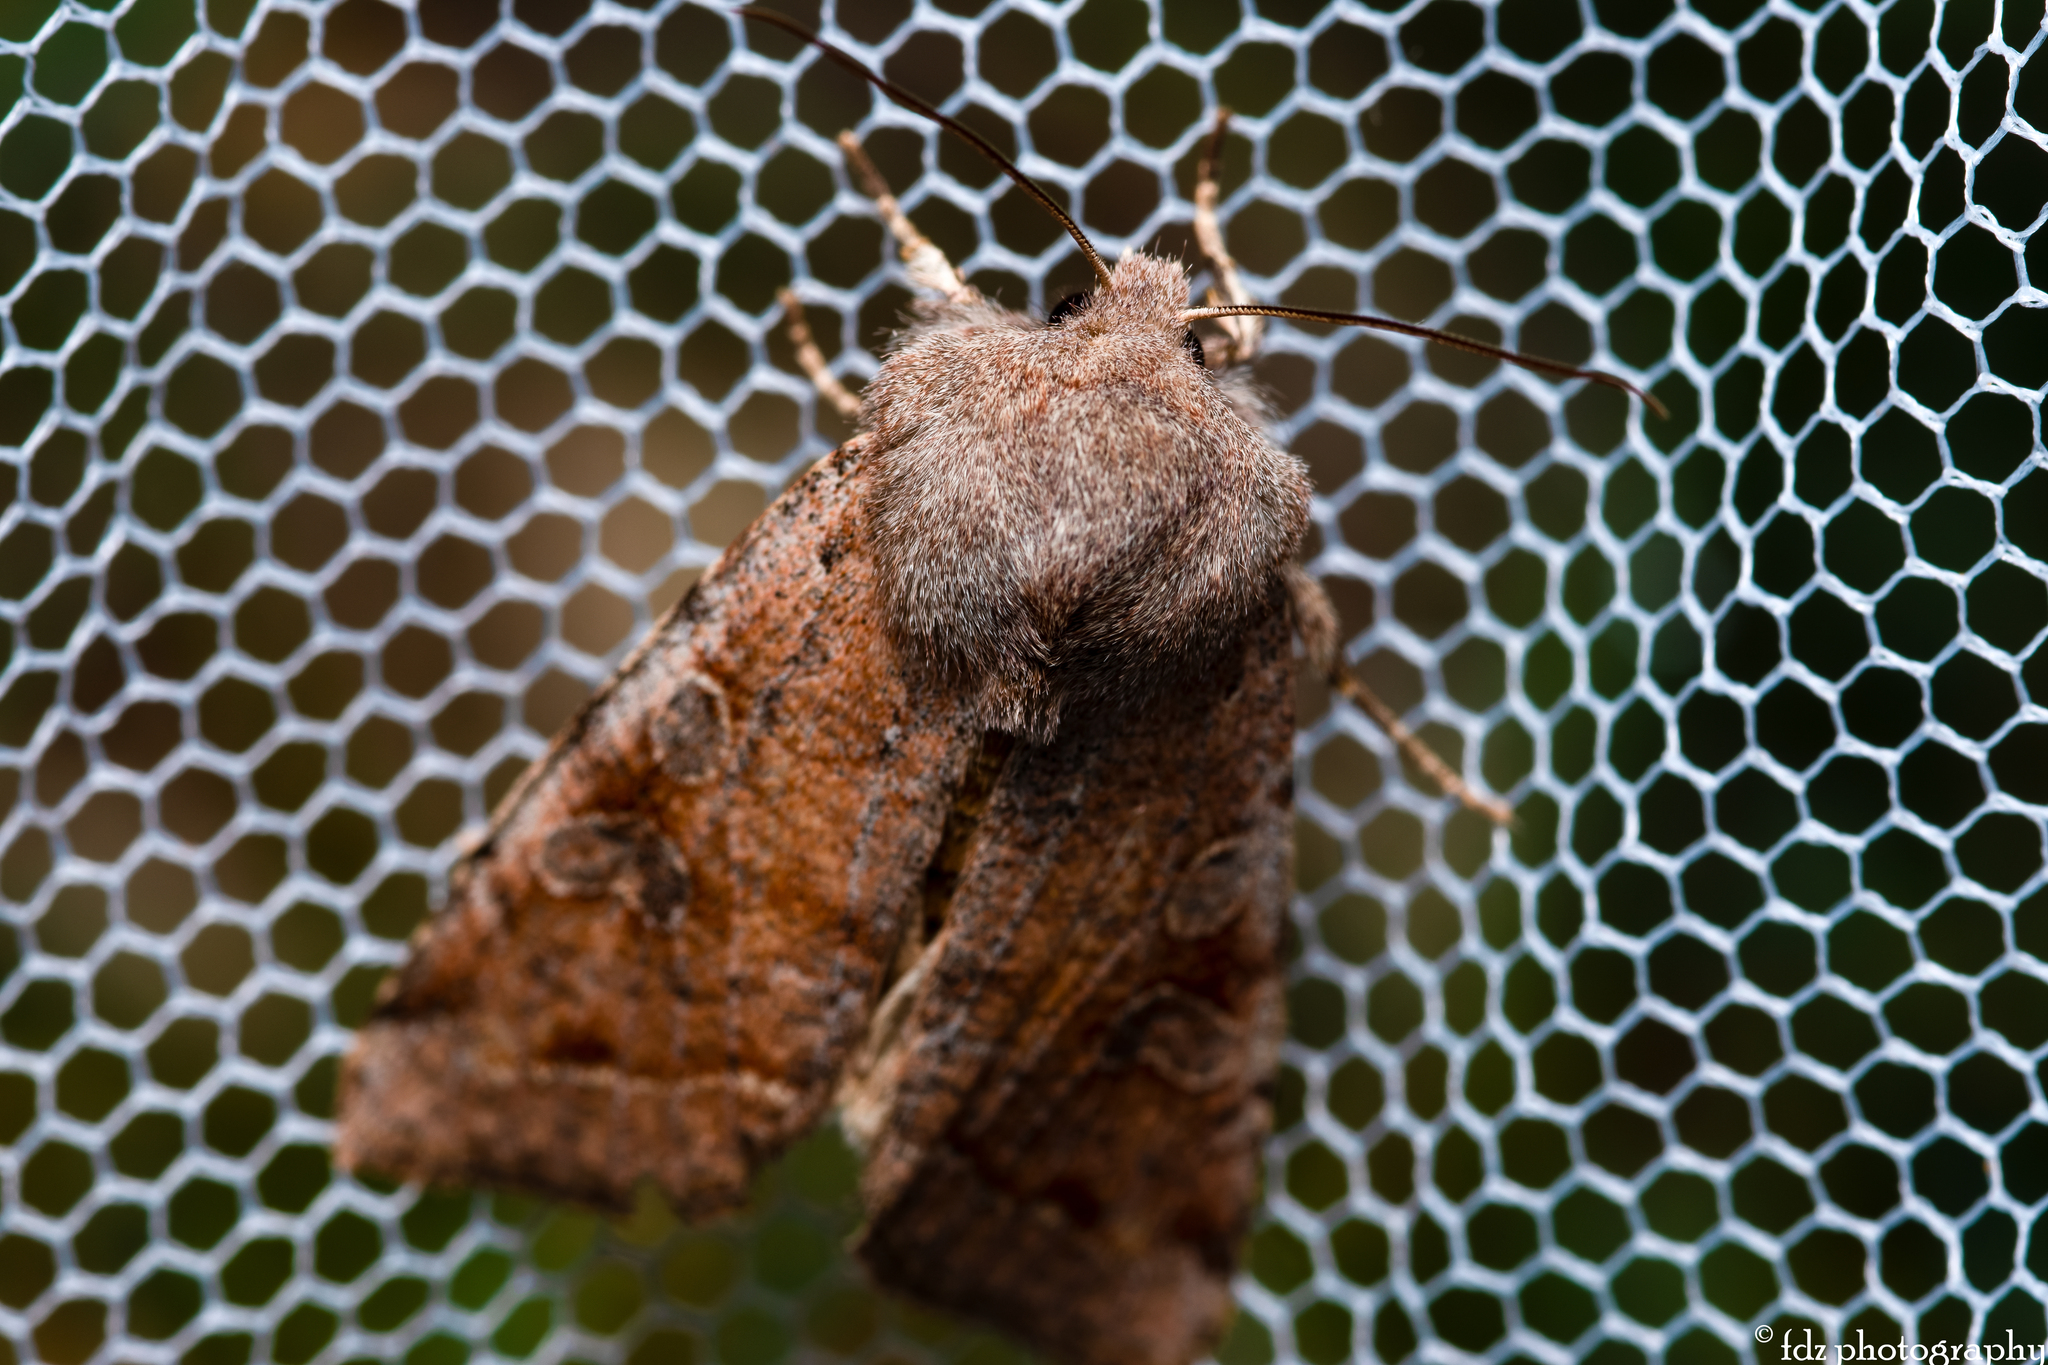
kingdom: Animalia
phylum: Arthropoda
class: Insecta
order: Lepidoptera
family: Noctuidae
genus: Orthosia
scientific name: Orthosia incerta
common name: Clouded drab
